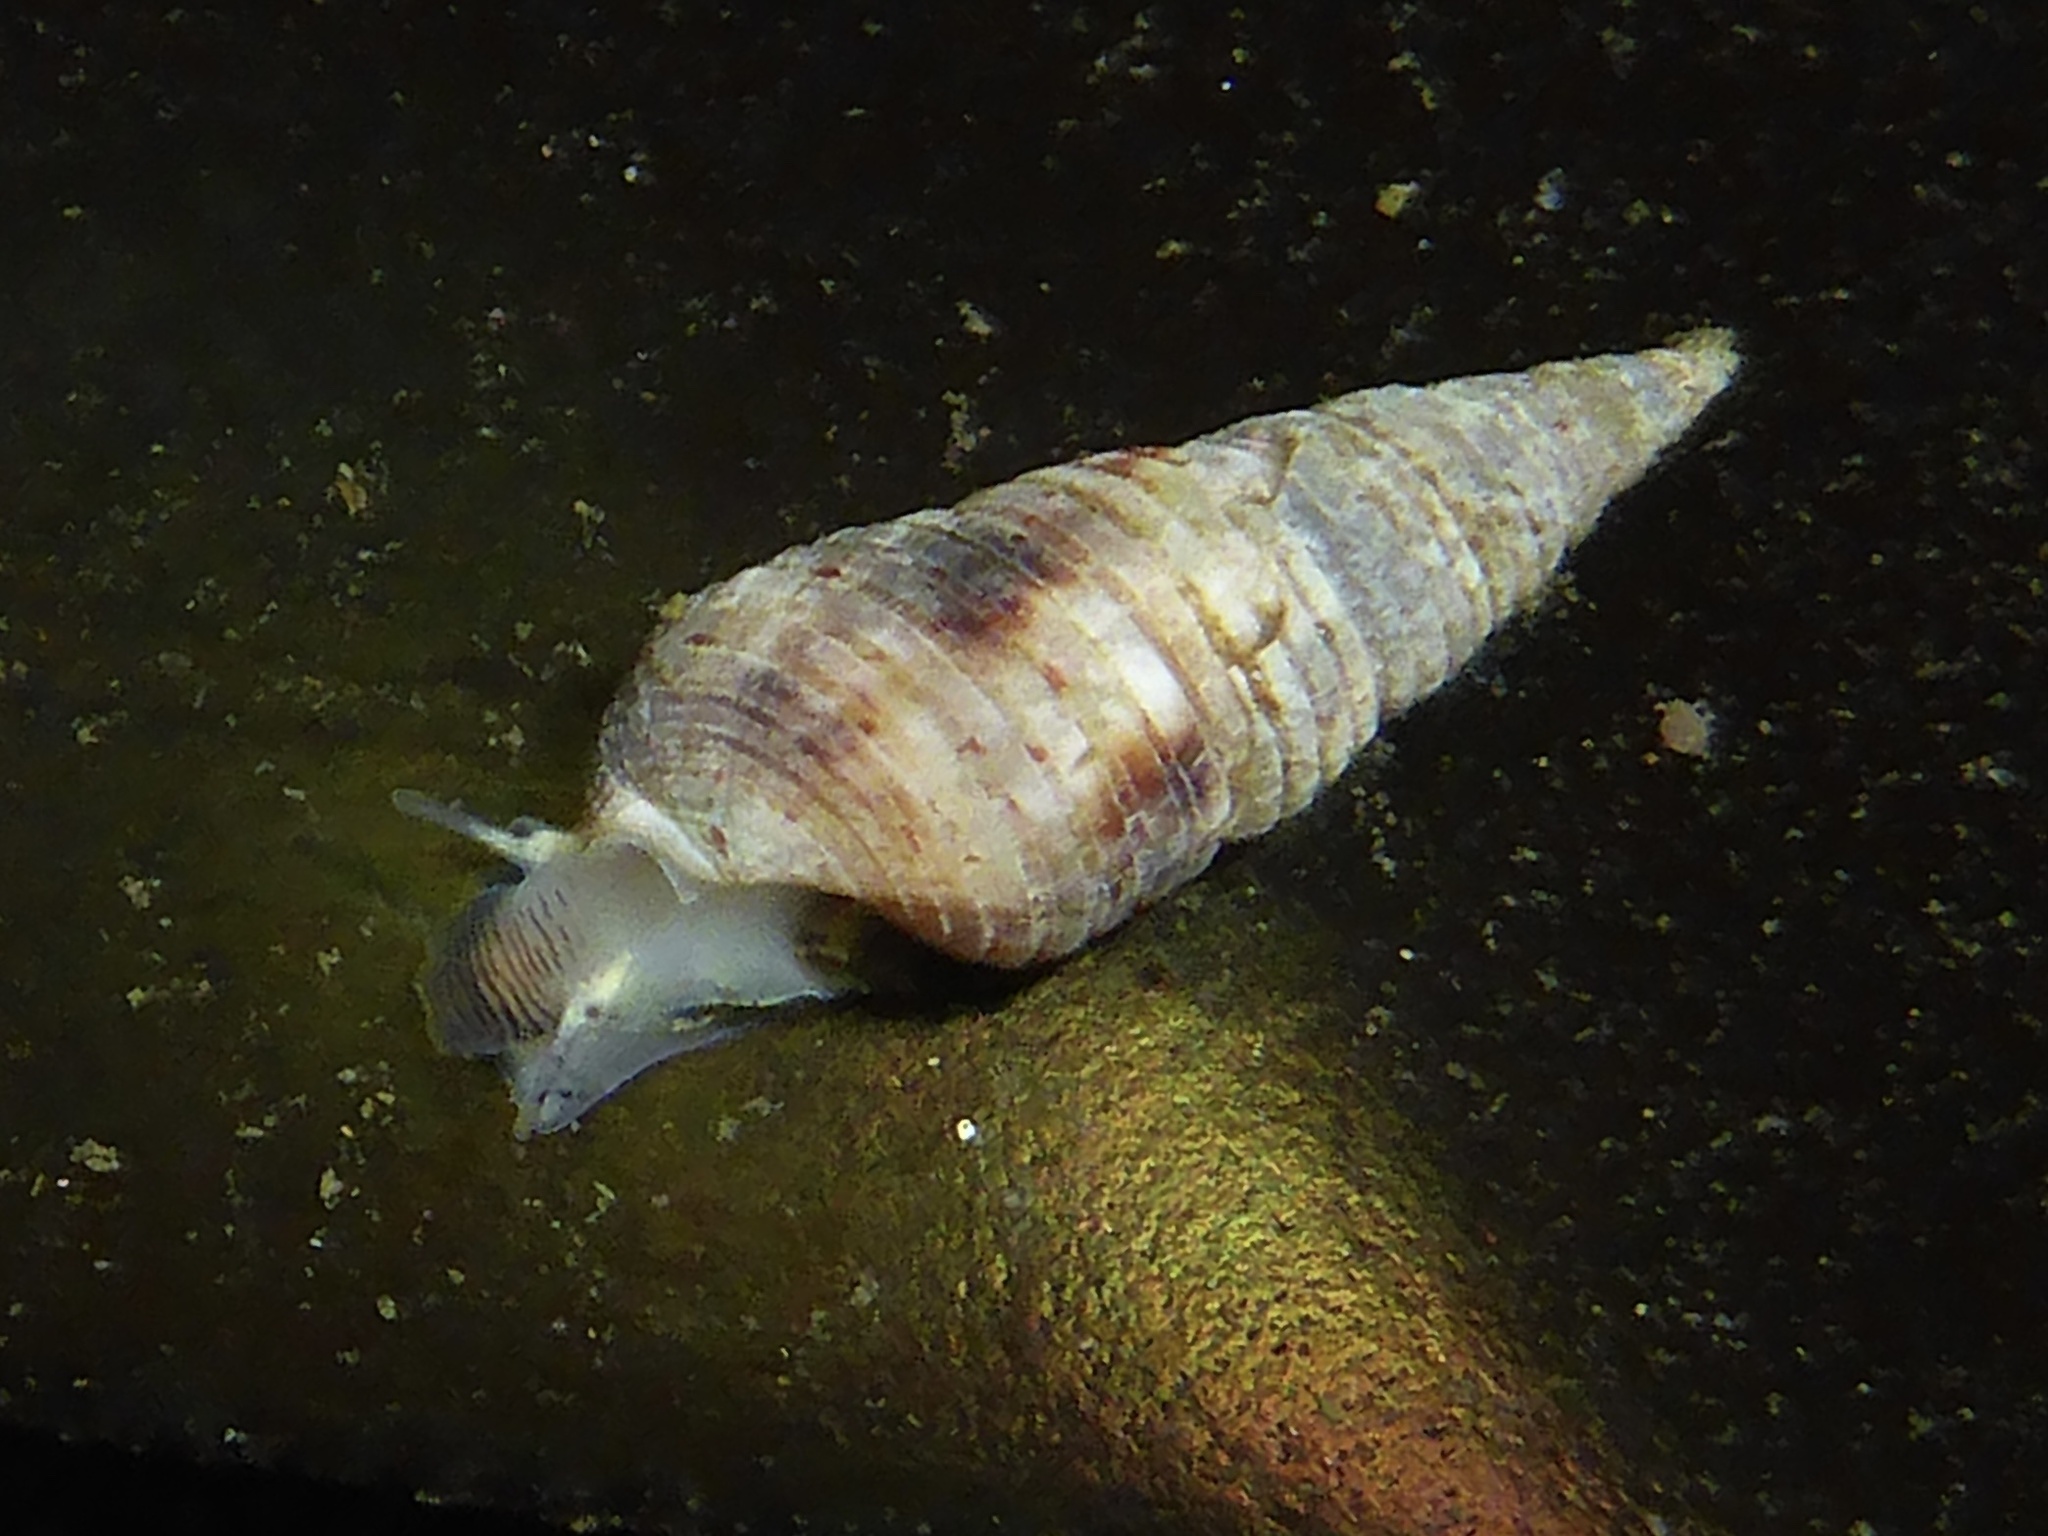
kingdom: Animalia
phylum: Mollusca
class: Gastropoda
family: Cerithiidae
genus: Neostylidium
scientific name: Neostylidium eschrichtii
